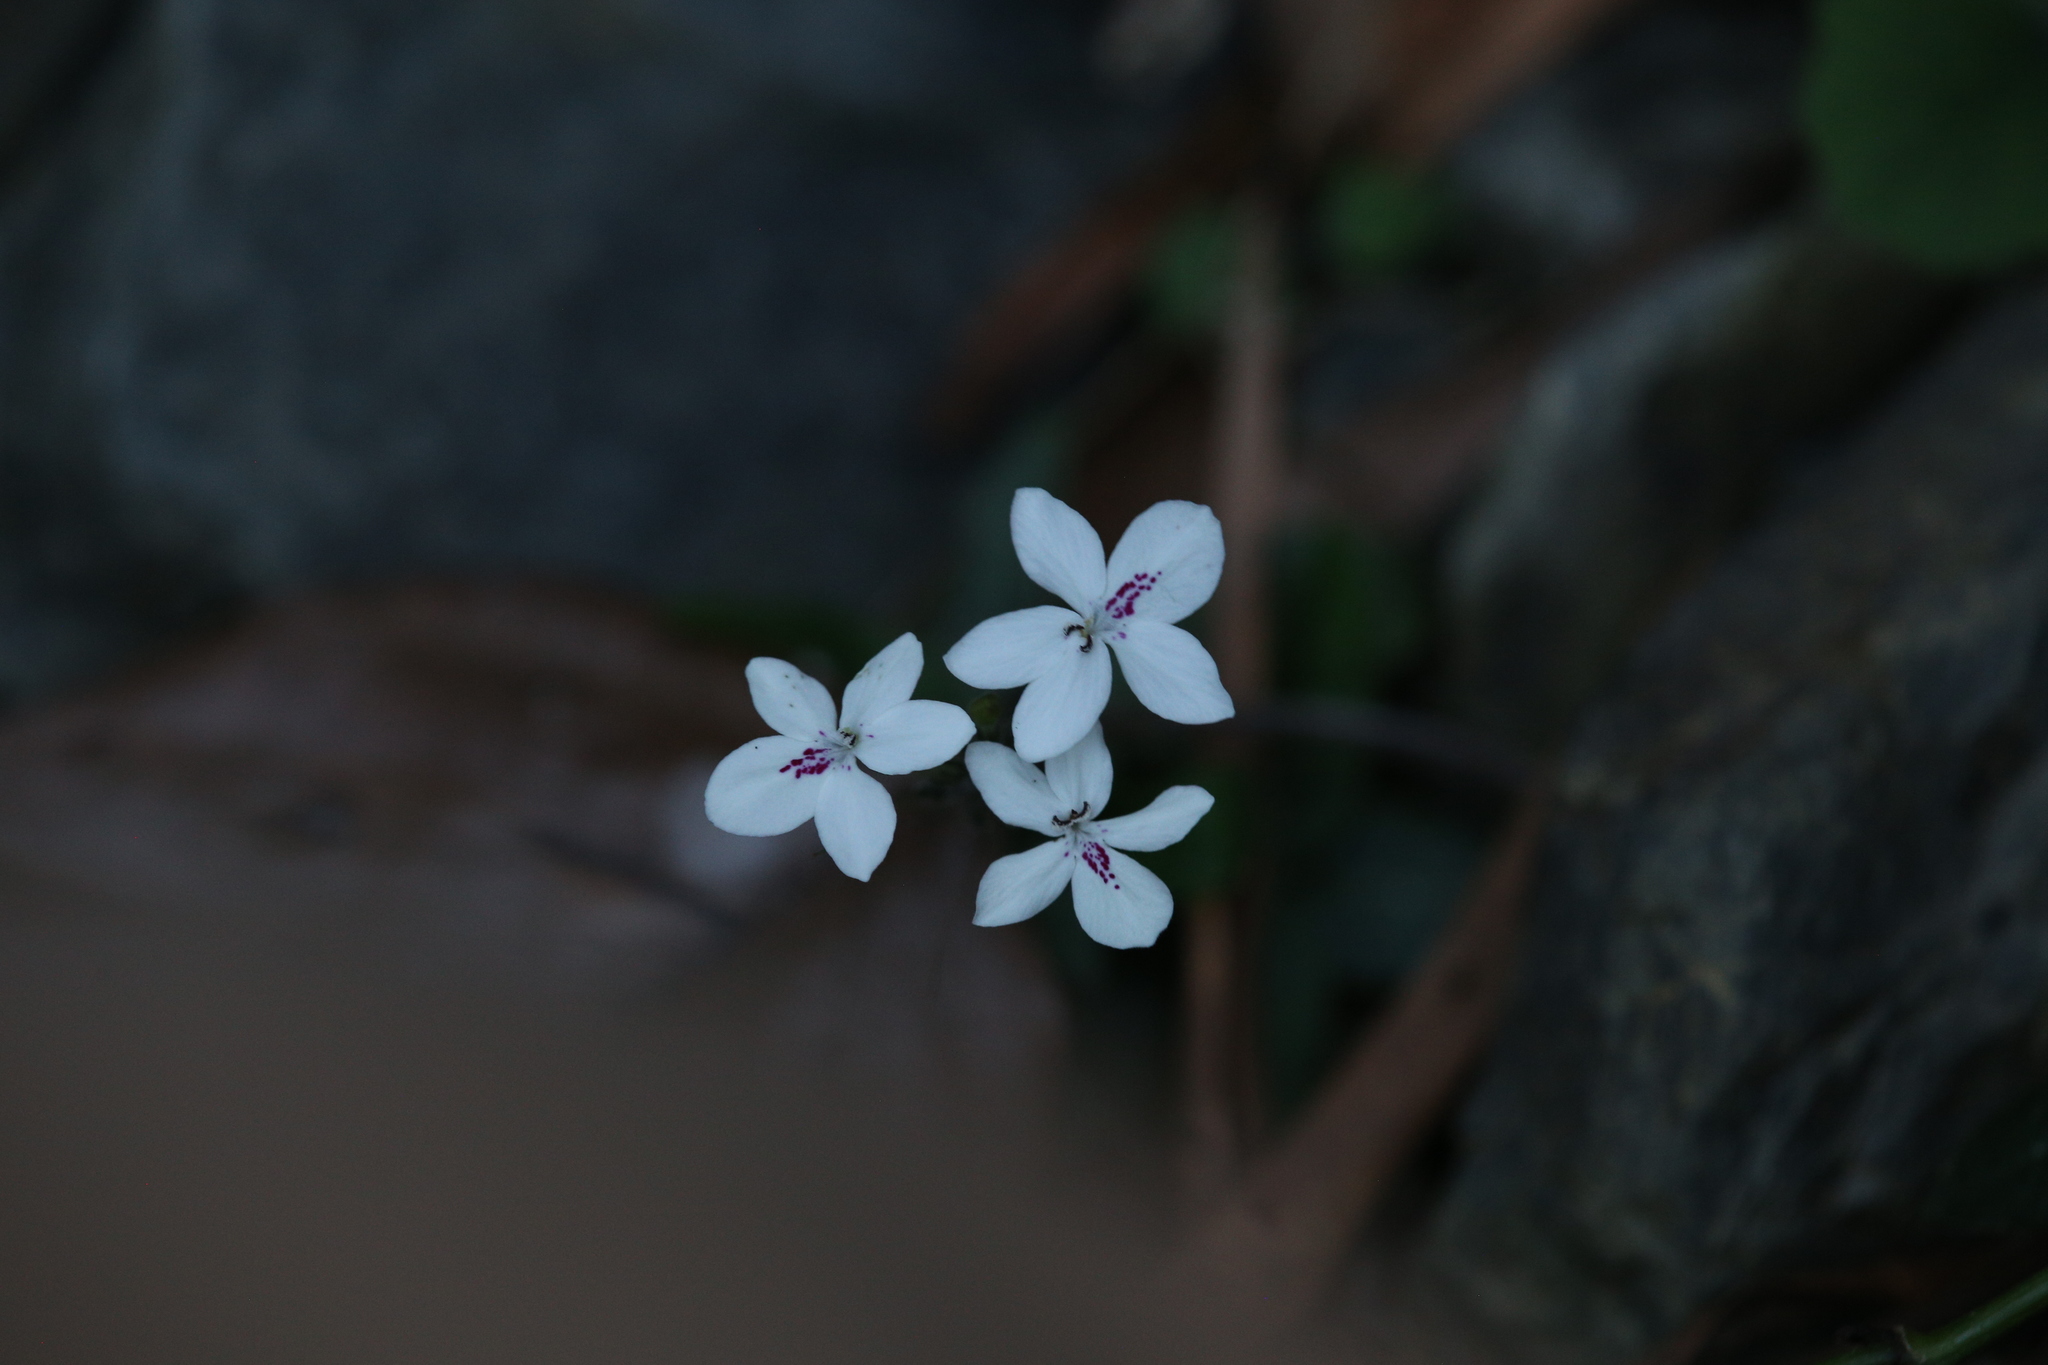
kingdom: Plantae
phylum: Tracheophyta
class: Magnoliopsida
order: Lamiales
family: Acanthaceae
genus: Pseuderanthemum
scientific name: Pseuderanthemum variabile
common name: Night and afternoon
